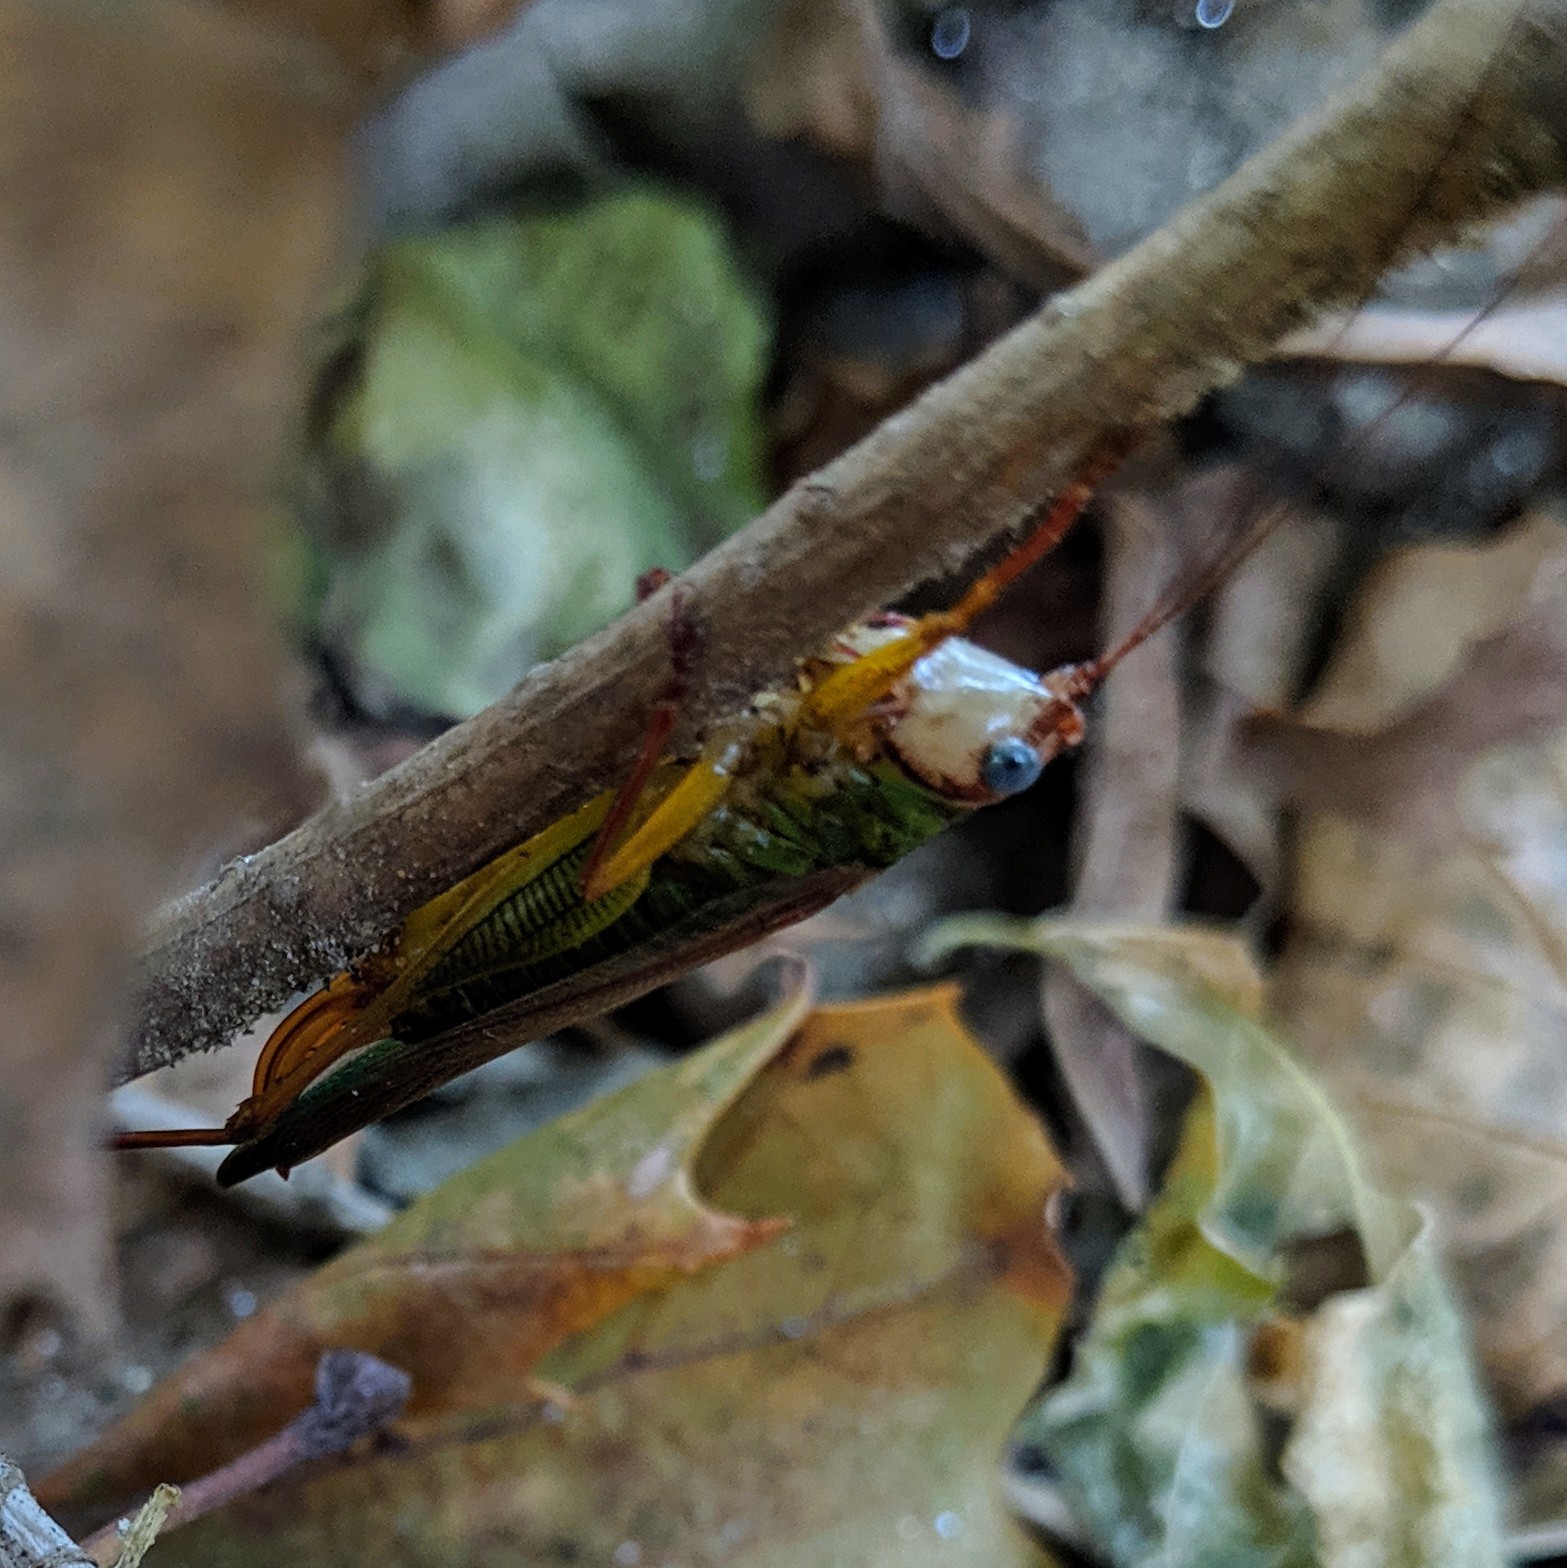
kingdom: Animalia
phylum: Arthropoda
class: Insecta
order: Orthoptera
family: Tettigoniidae
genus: Orchelimum
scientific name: Orchelimum pulchellum
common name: Handsome meadow katydid
